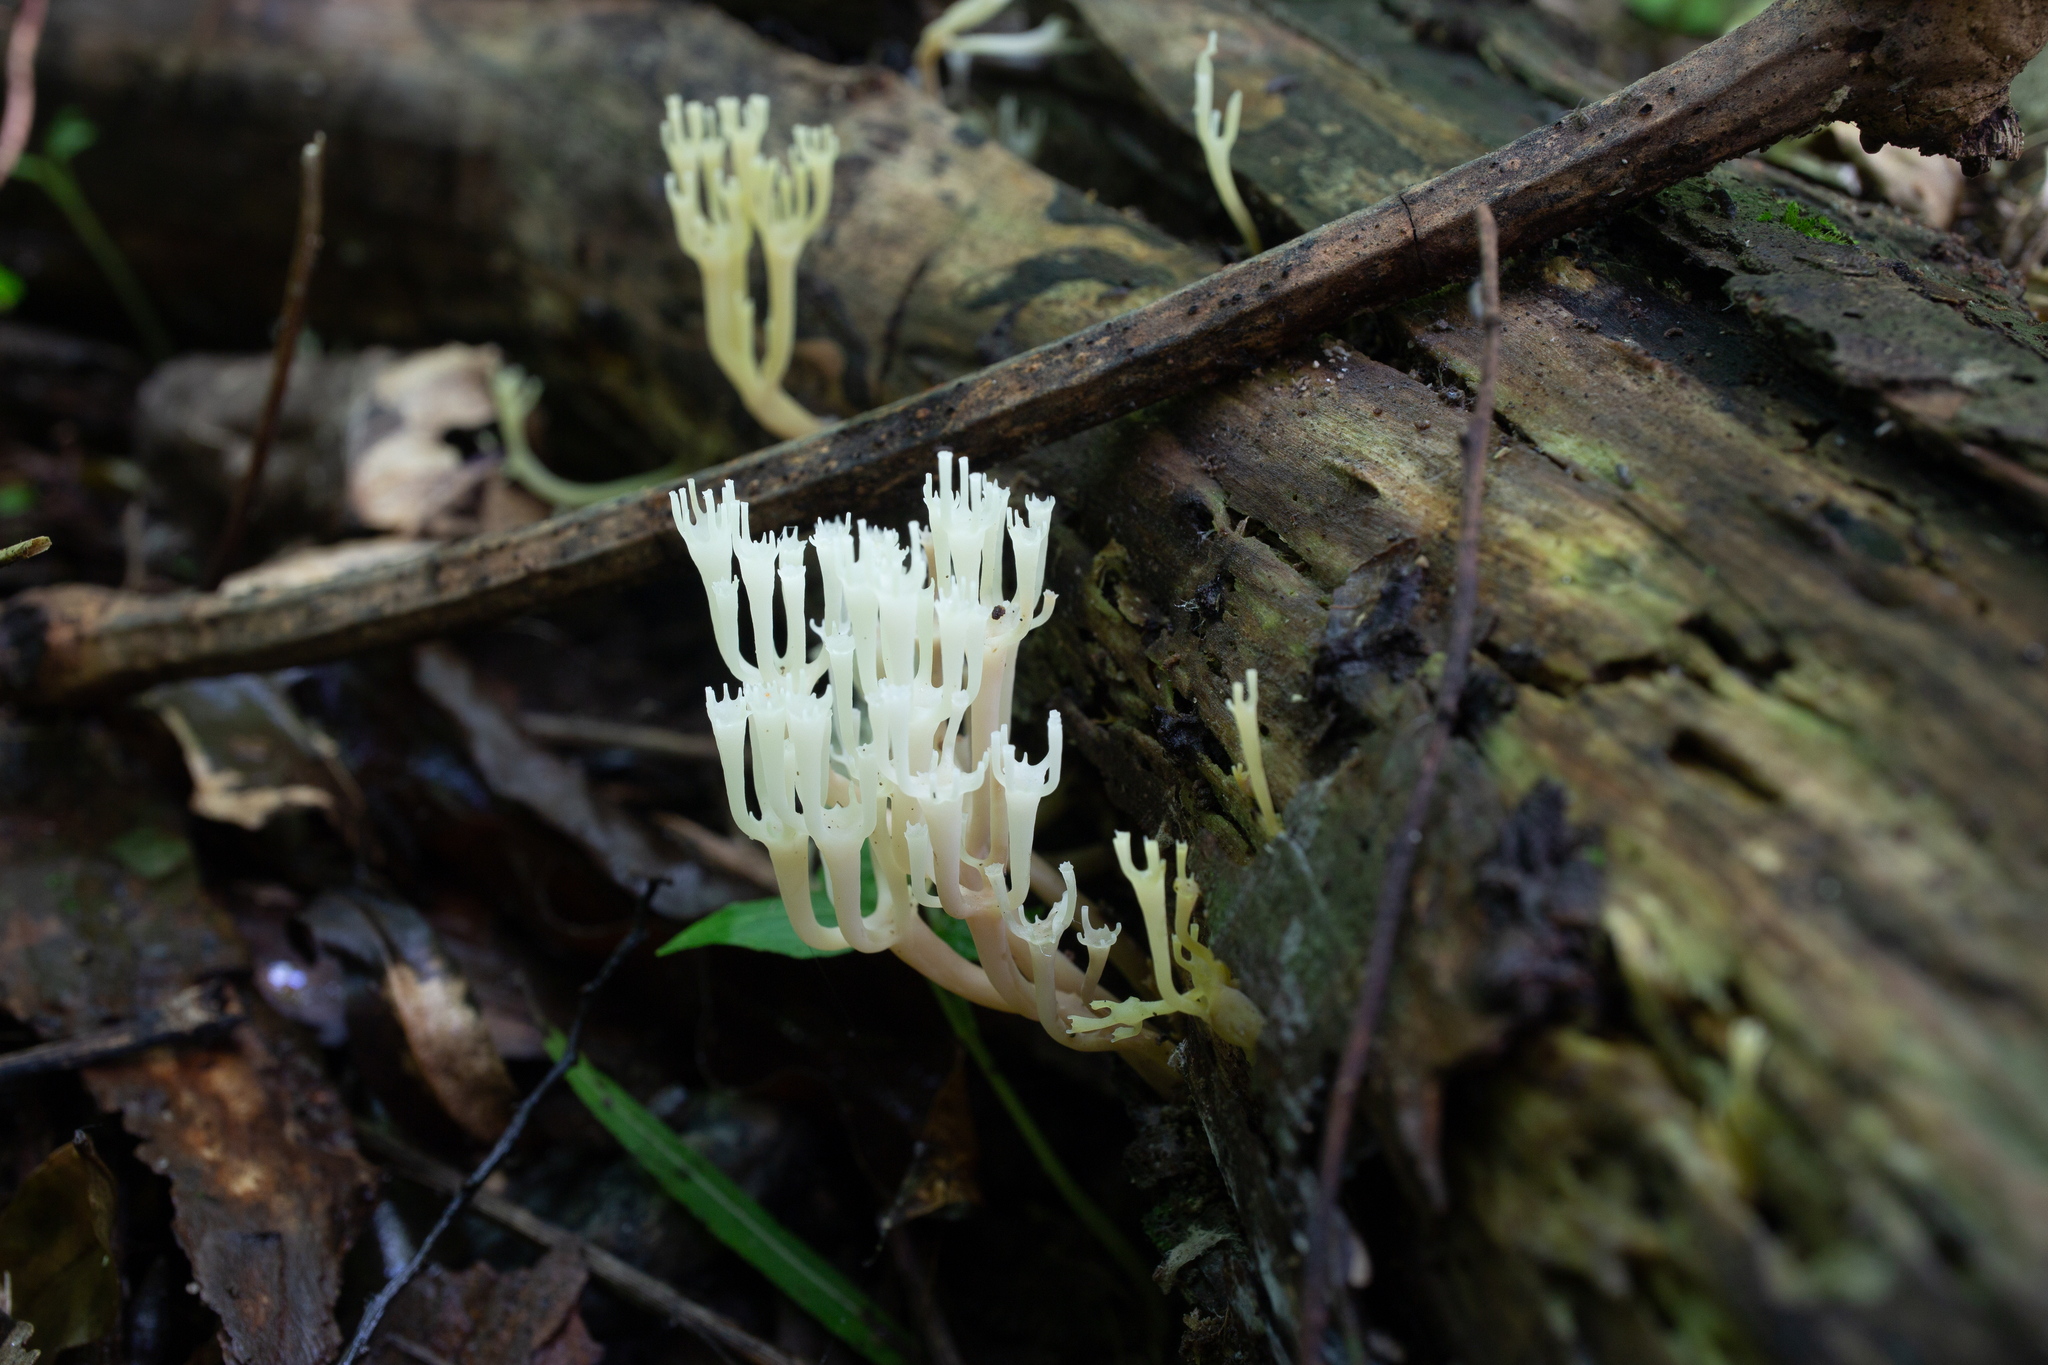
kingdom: Fungi
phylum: Basidiomycota
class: Agaricomycetes
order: Russulales
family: Auriscalpiaceae
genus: Artomyces
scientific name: Artomyces pyxidatus
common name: Crown-tipped coral fungus
